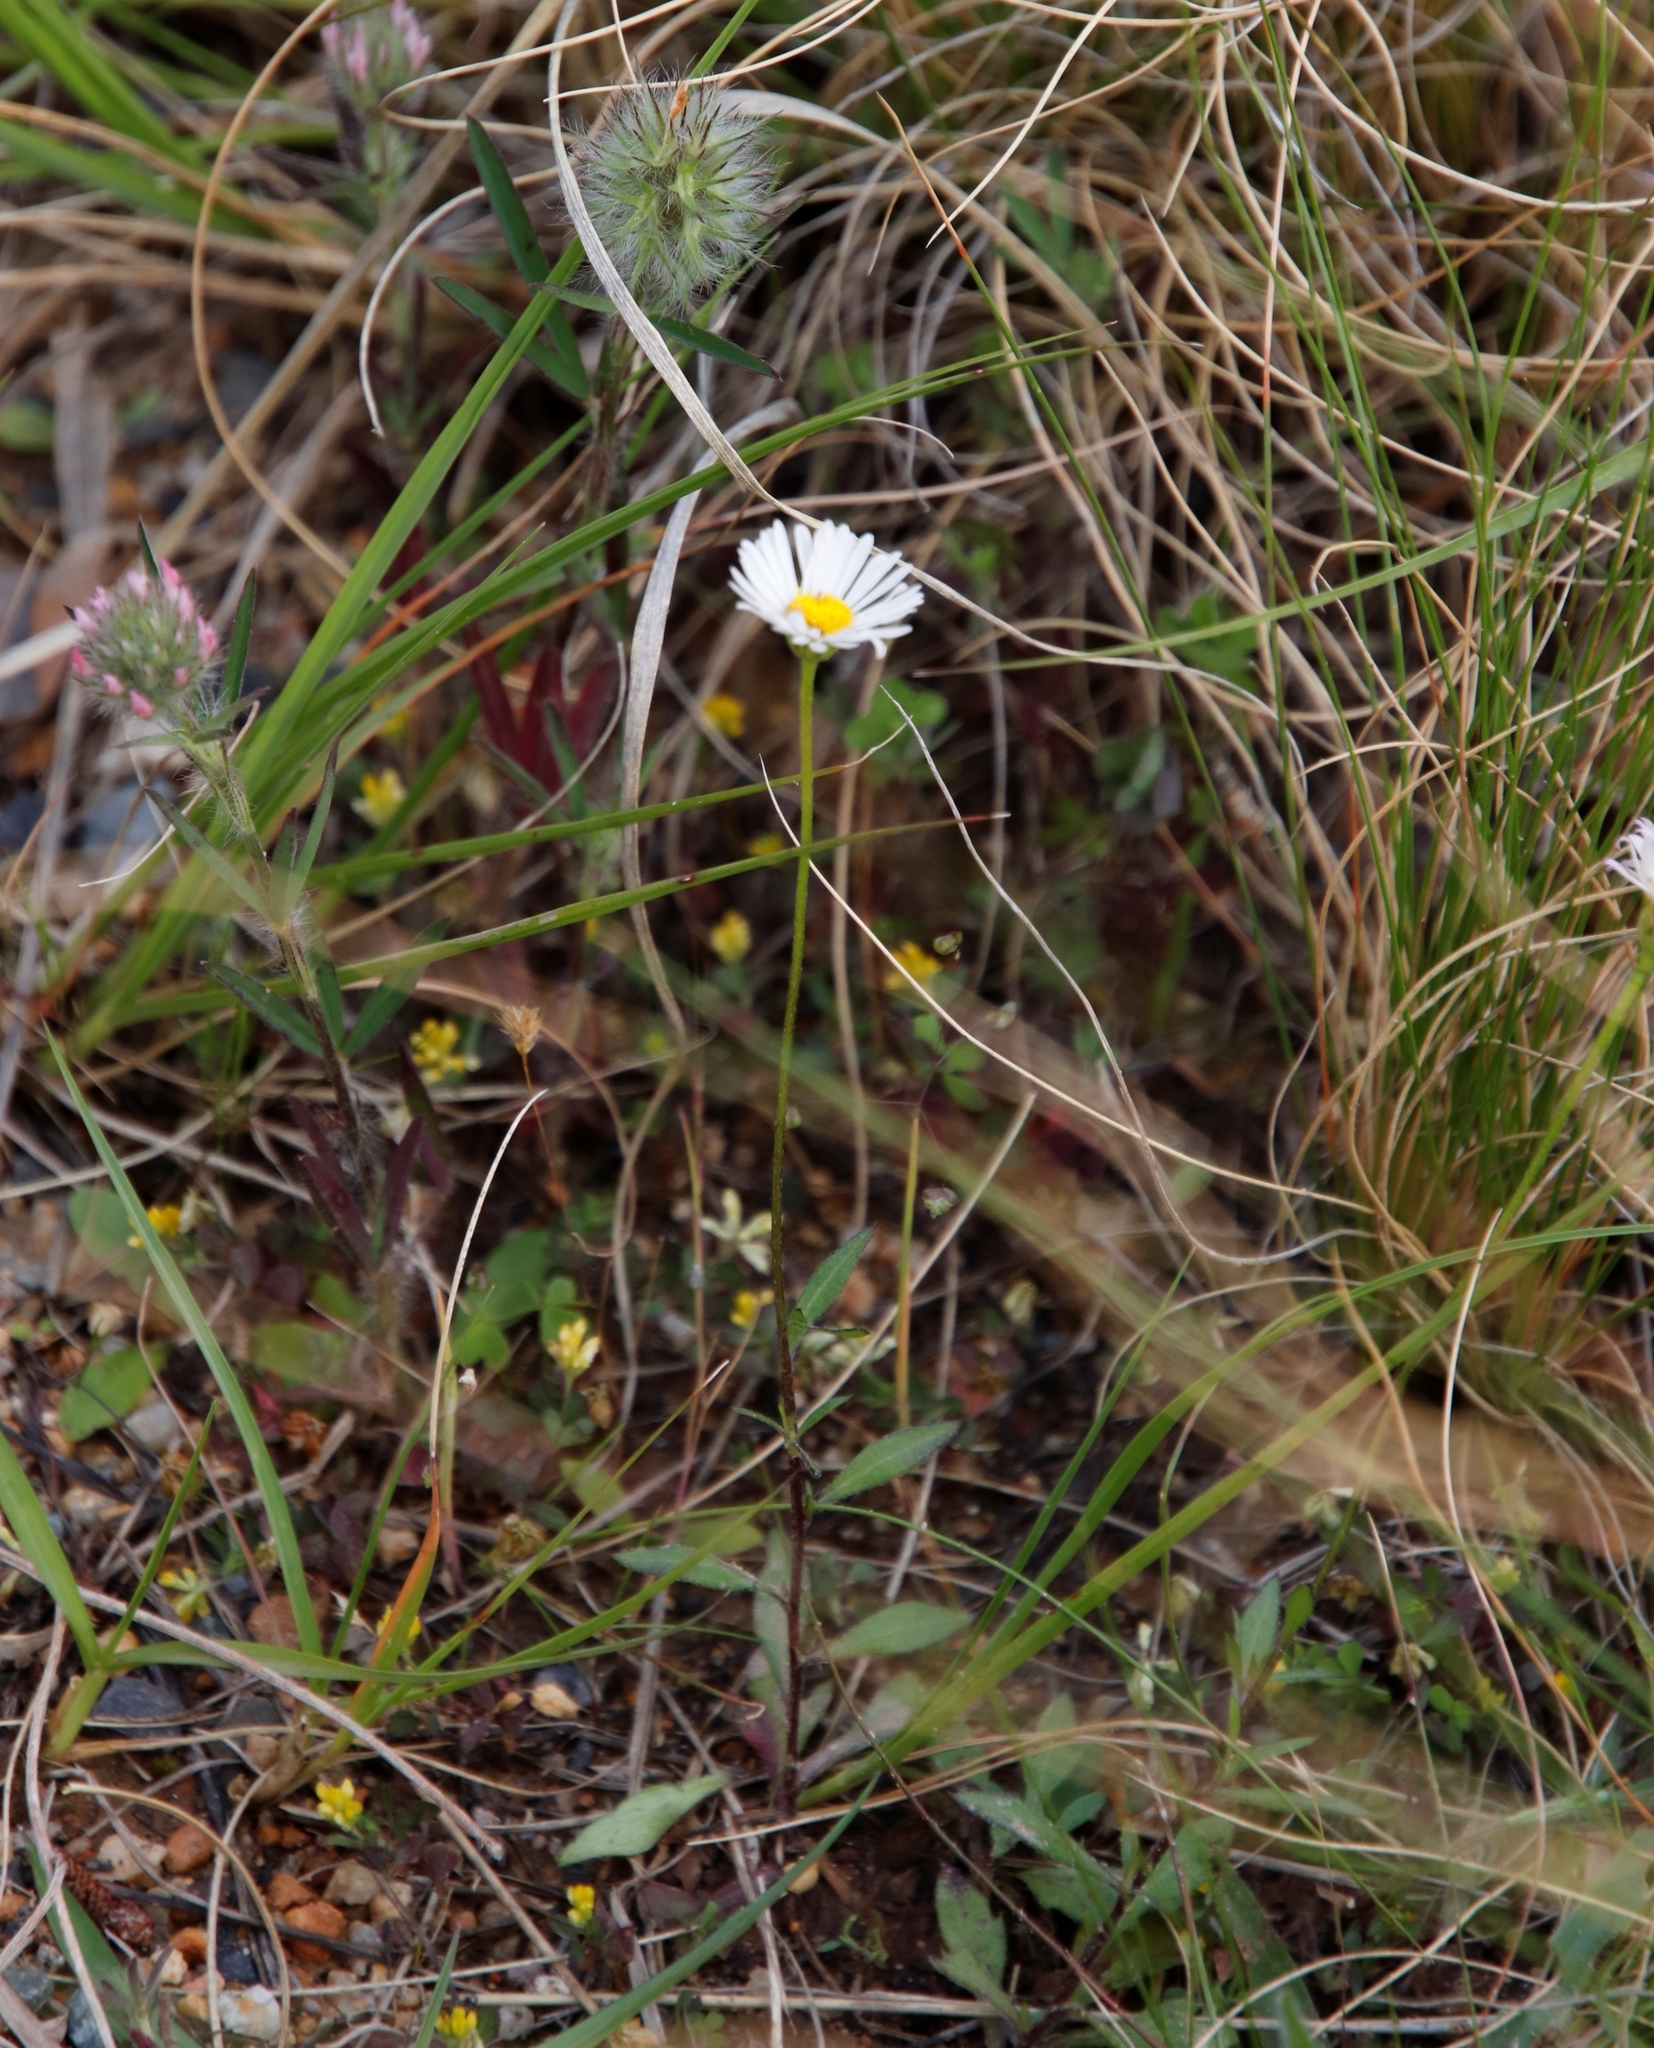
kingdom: Plantae
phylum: Tracheophyta
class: Magnoliopsida
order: Asterales
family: Asteraceae
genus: Erigeron
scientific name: Erigeron karvinskianus
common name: Mexican fleabane
